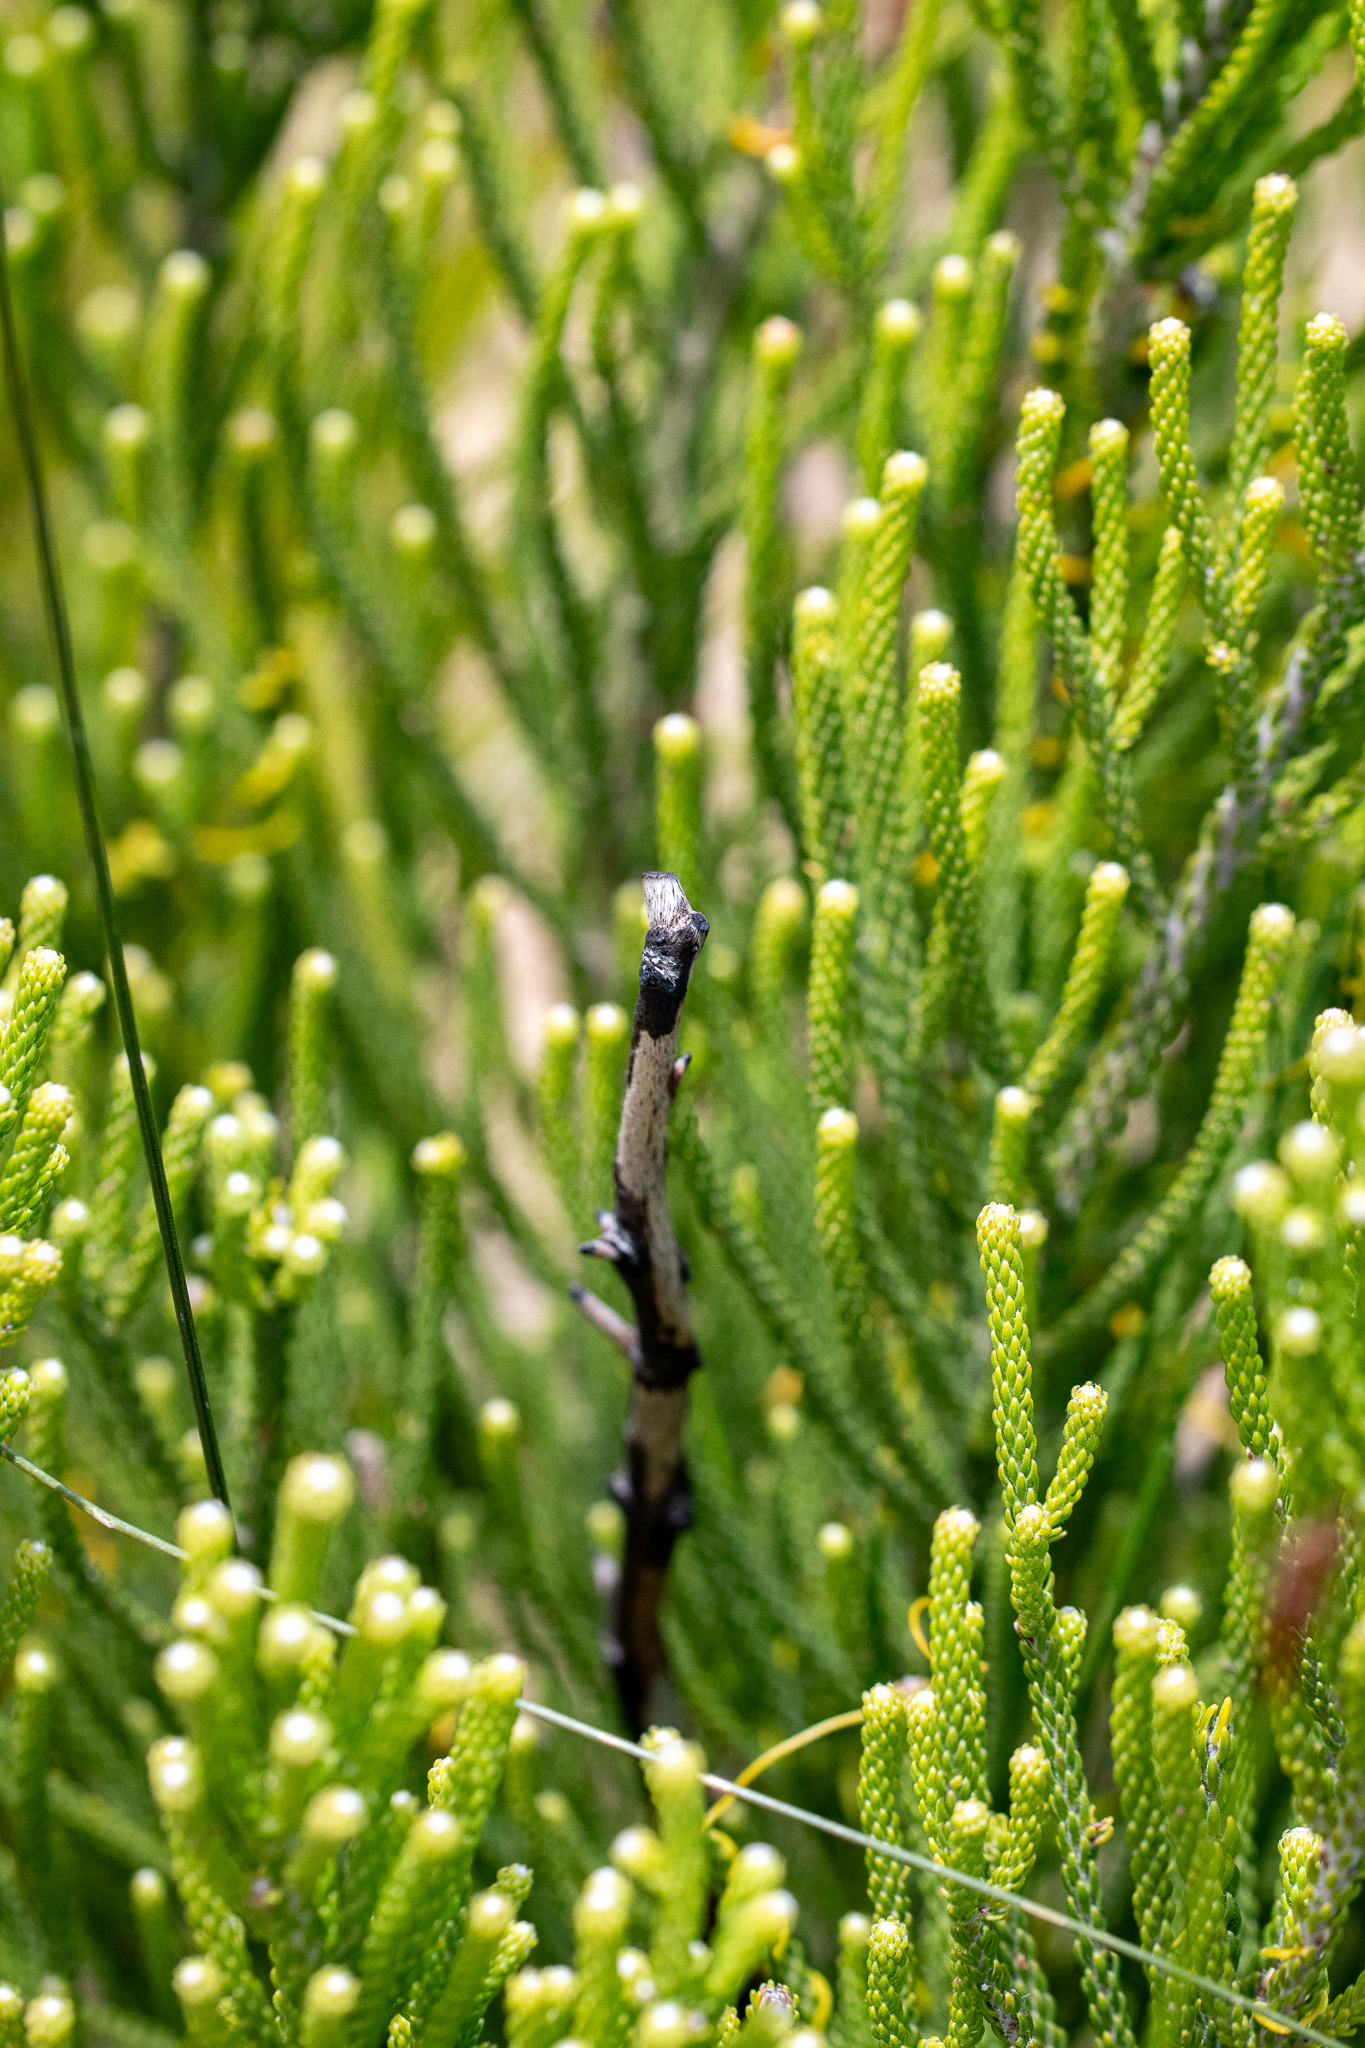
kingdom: Plantae
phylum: Tracheophyta
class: Magnoliopsida
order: Bruniales
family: Bruniaceae
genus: Brunia
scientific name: Brunia noduliflora
